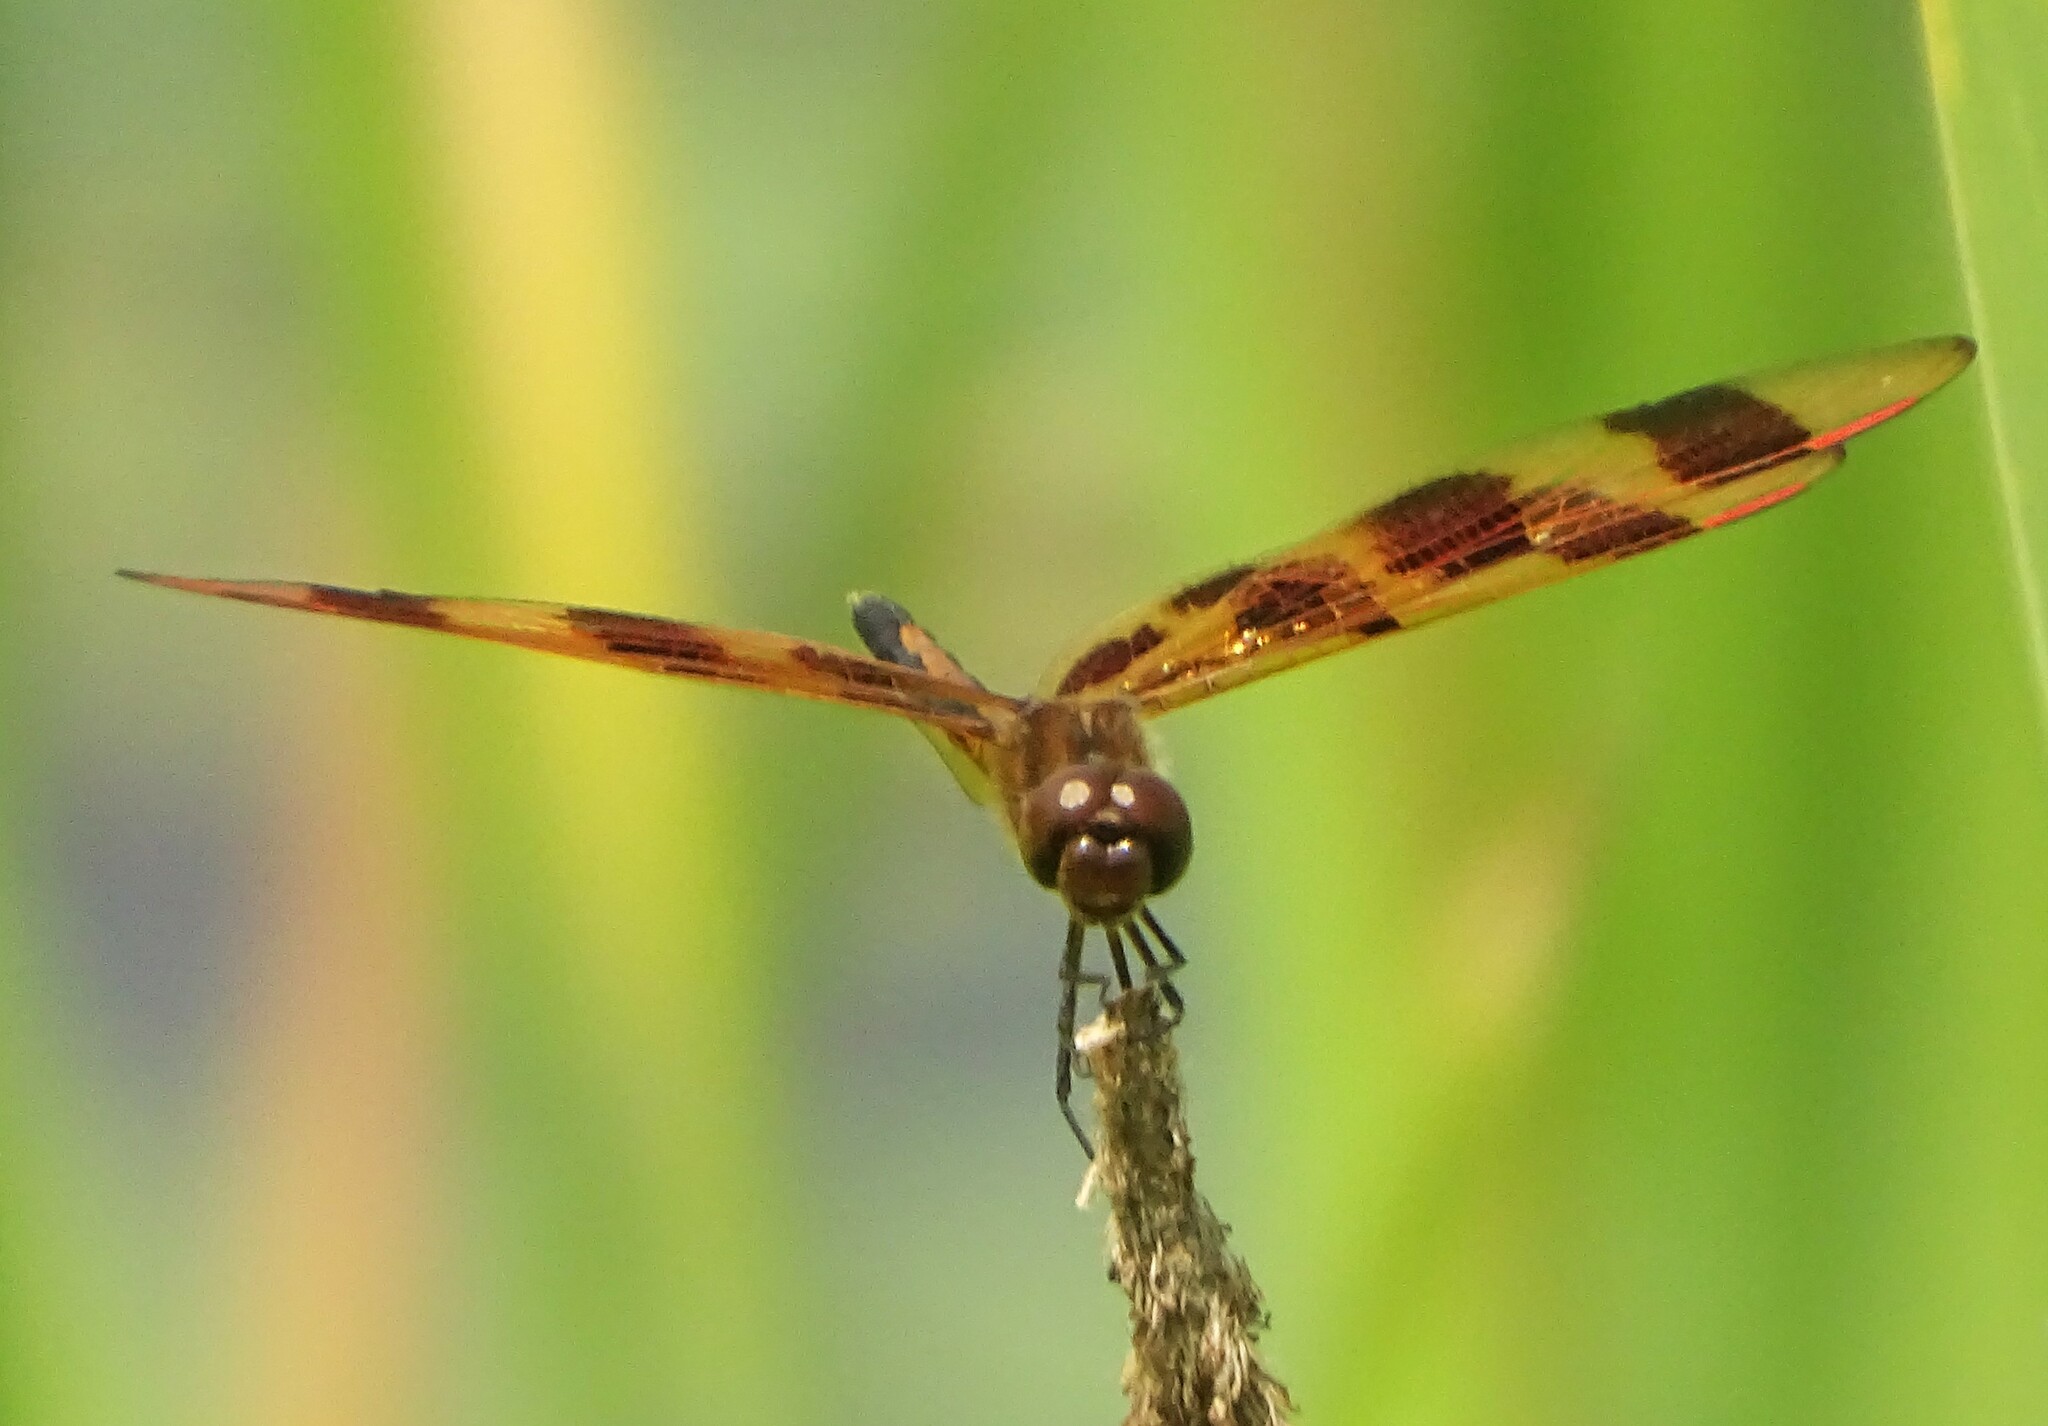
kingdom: Animalia
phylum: Arthropoda
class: Insecta
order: Odonata
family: Libellulidae
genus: Celithemis
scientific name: Celithemis eponina
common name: Halloween pennant
